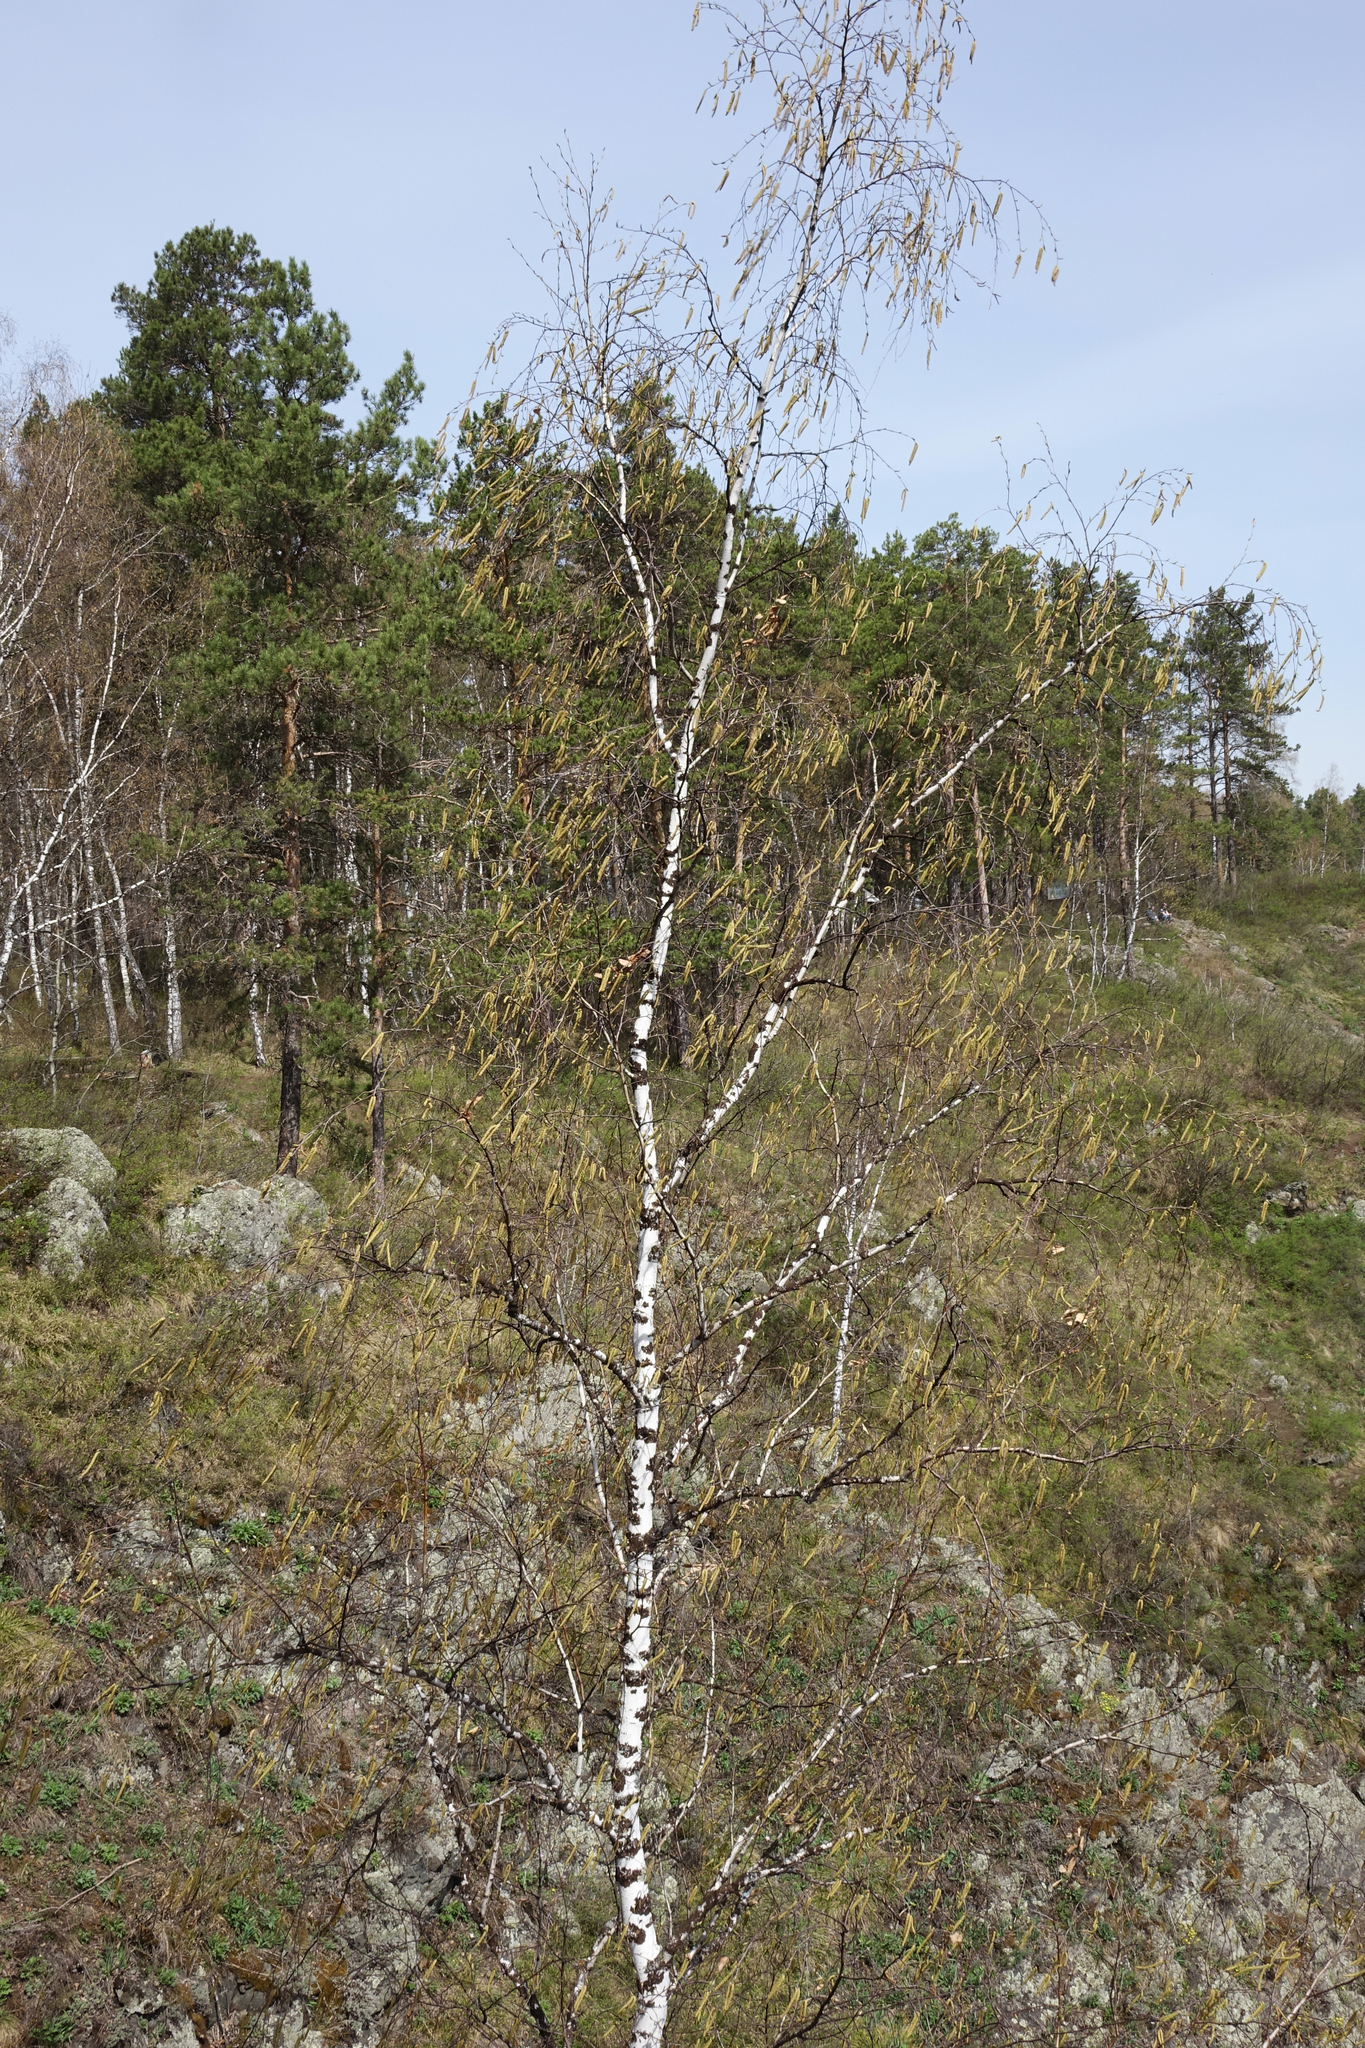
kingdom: Plantae
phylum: Tracheophyta
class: Magnoliopsida
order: Fagales
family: Betulaceae
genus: Betula
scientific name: Betula pendula
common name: Silver birch
